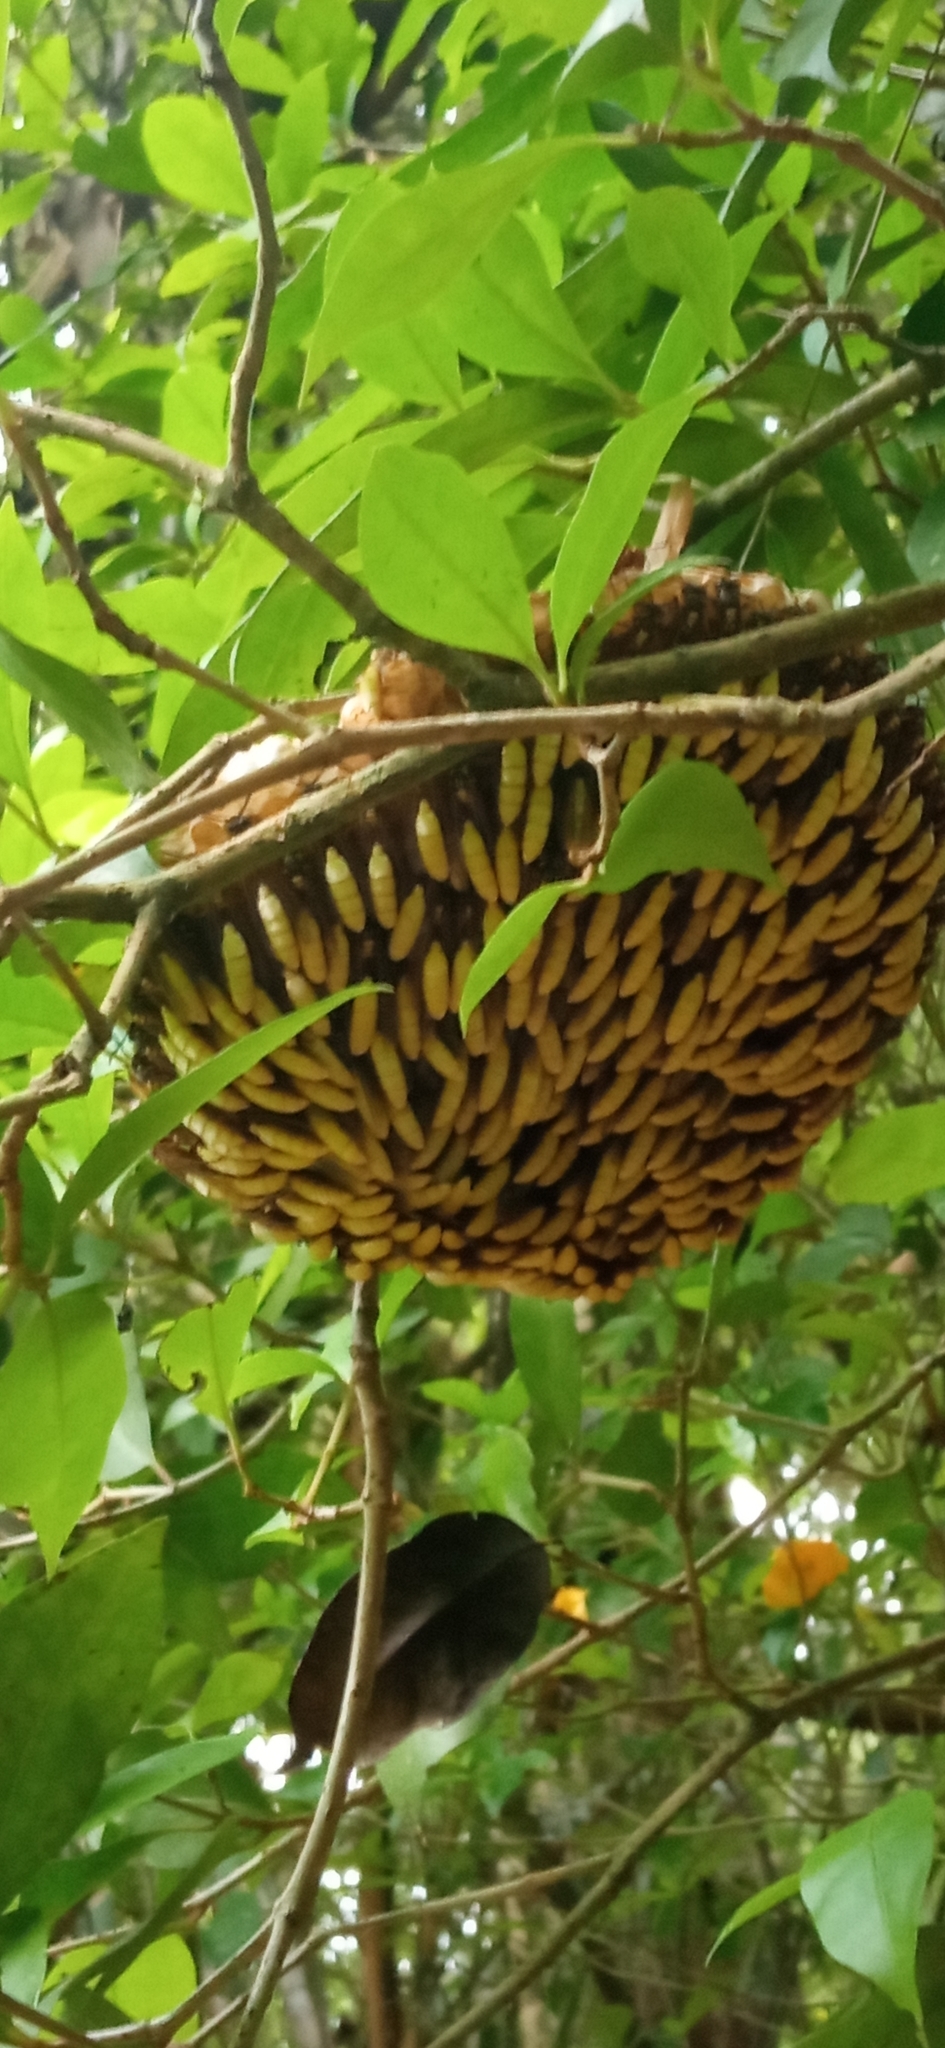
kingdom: Animalia
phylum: Arthropoda
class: Insecta
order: Hymenoptera
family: Vespidae
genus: Apoica
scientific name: Apoica pallens
